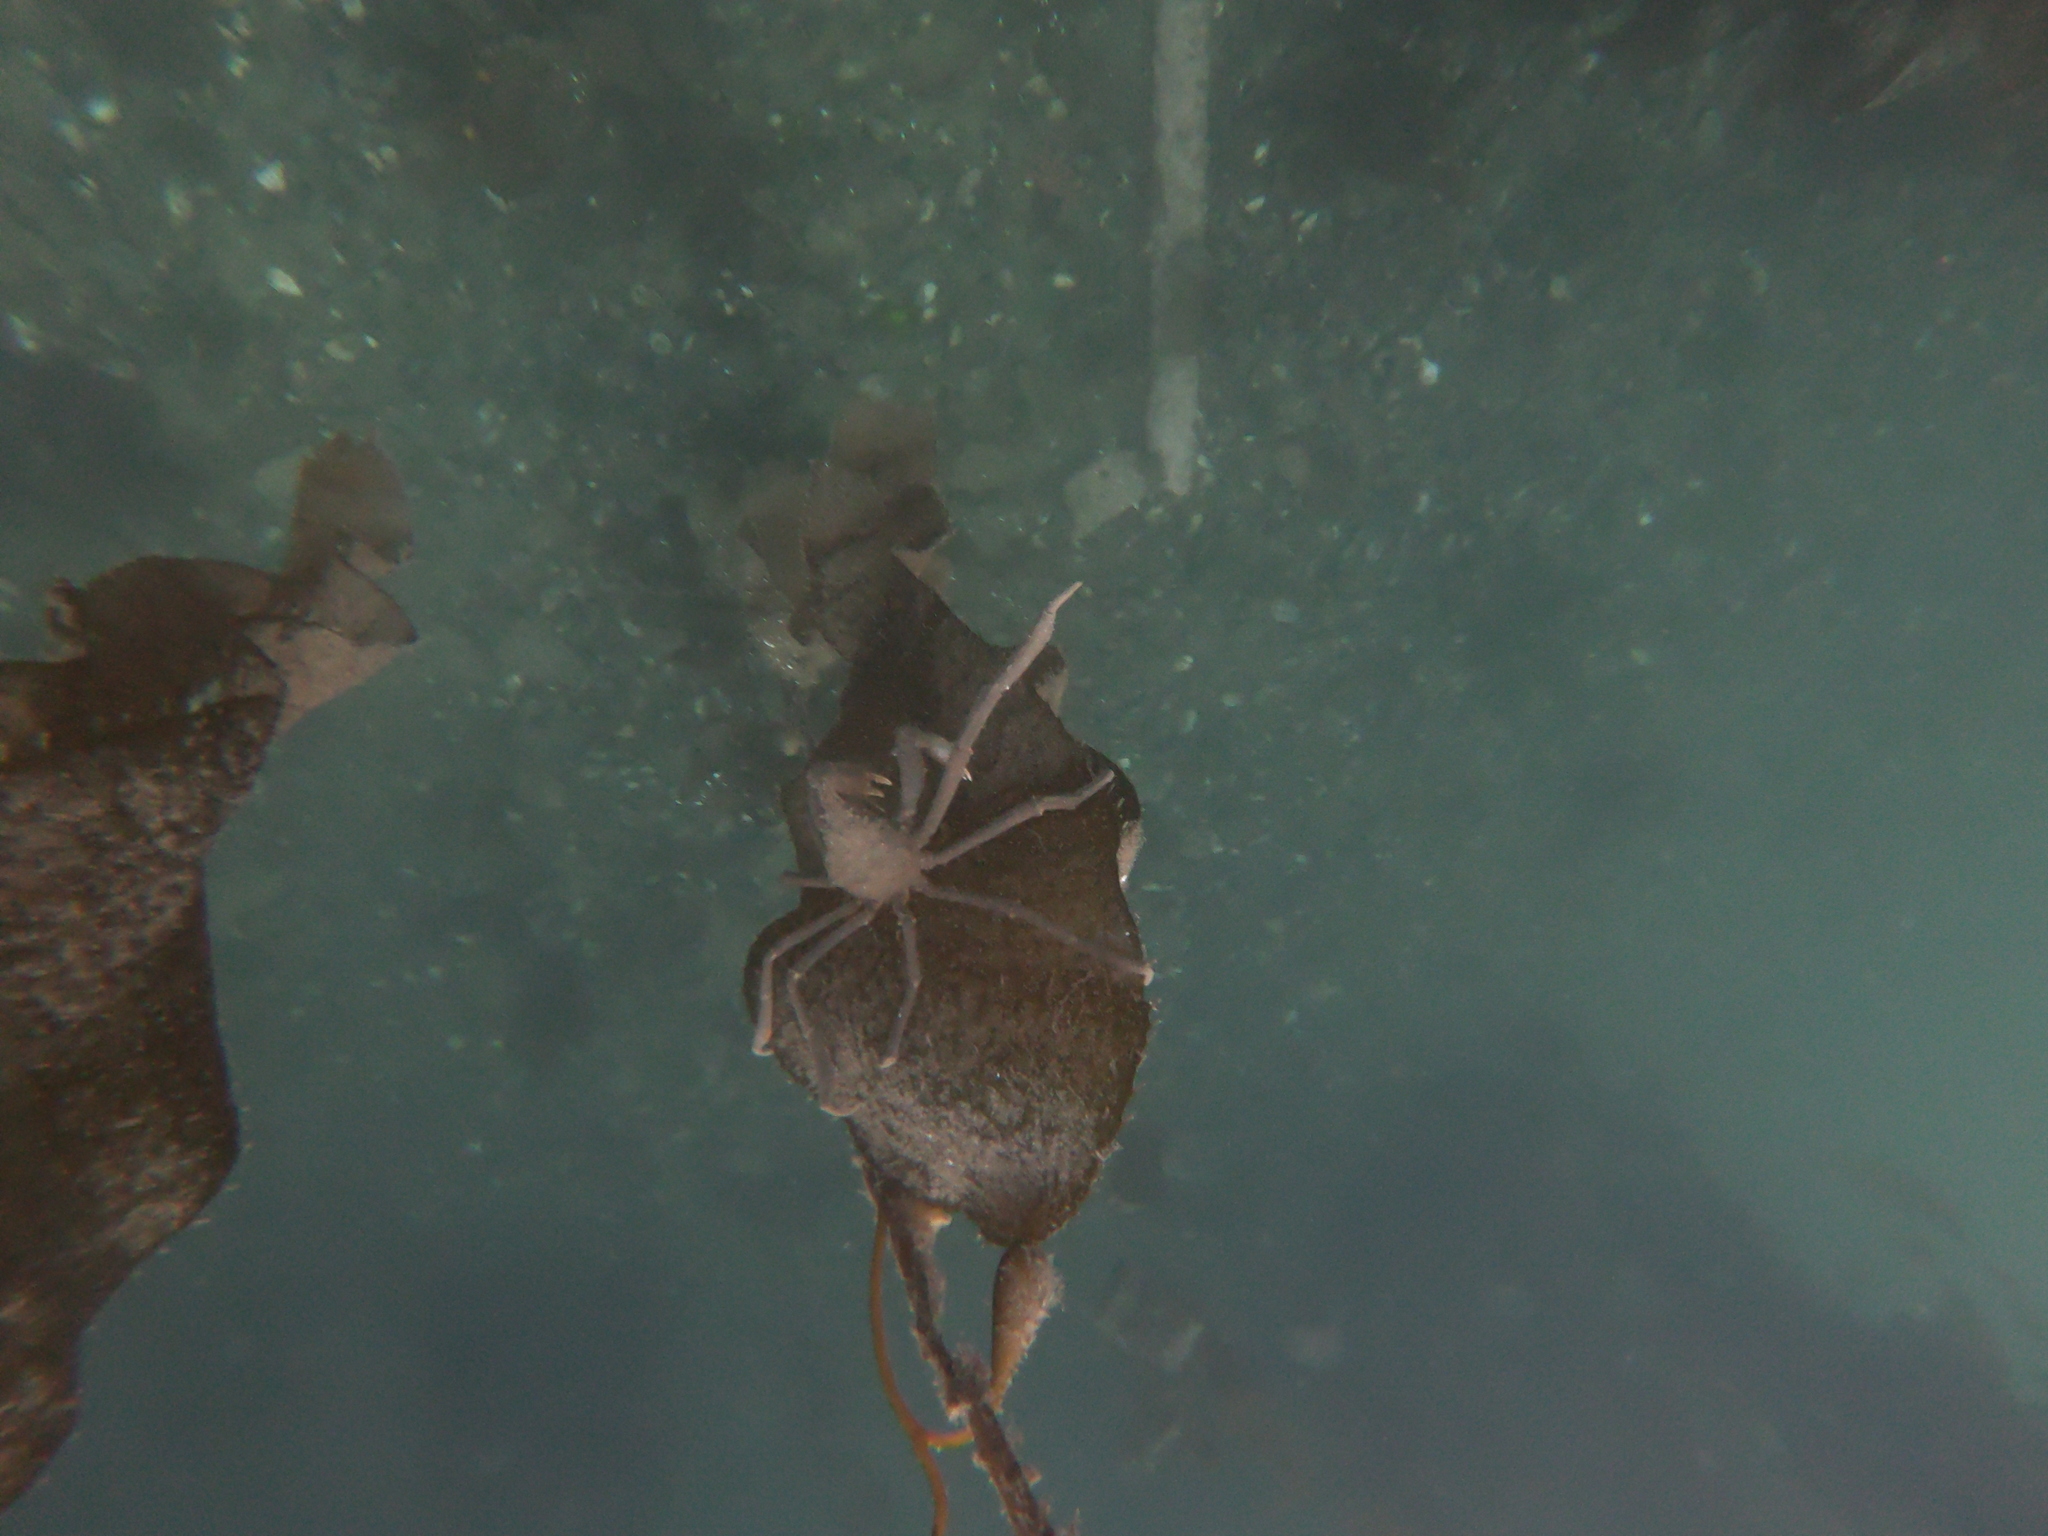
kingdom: Animalia
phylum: Arthropoda
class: Malacostraca
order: Decapoda
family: Inachidae
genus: Eurypodius
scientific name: Eurypodius longirostris
